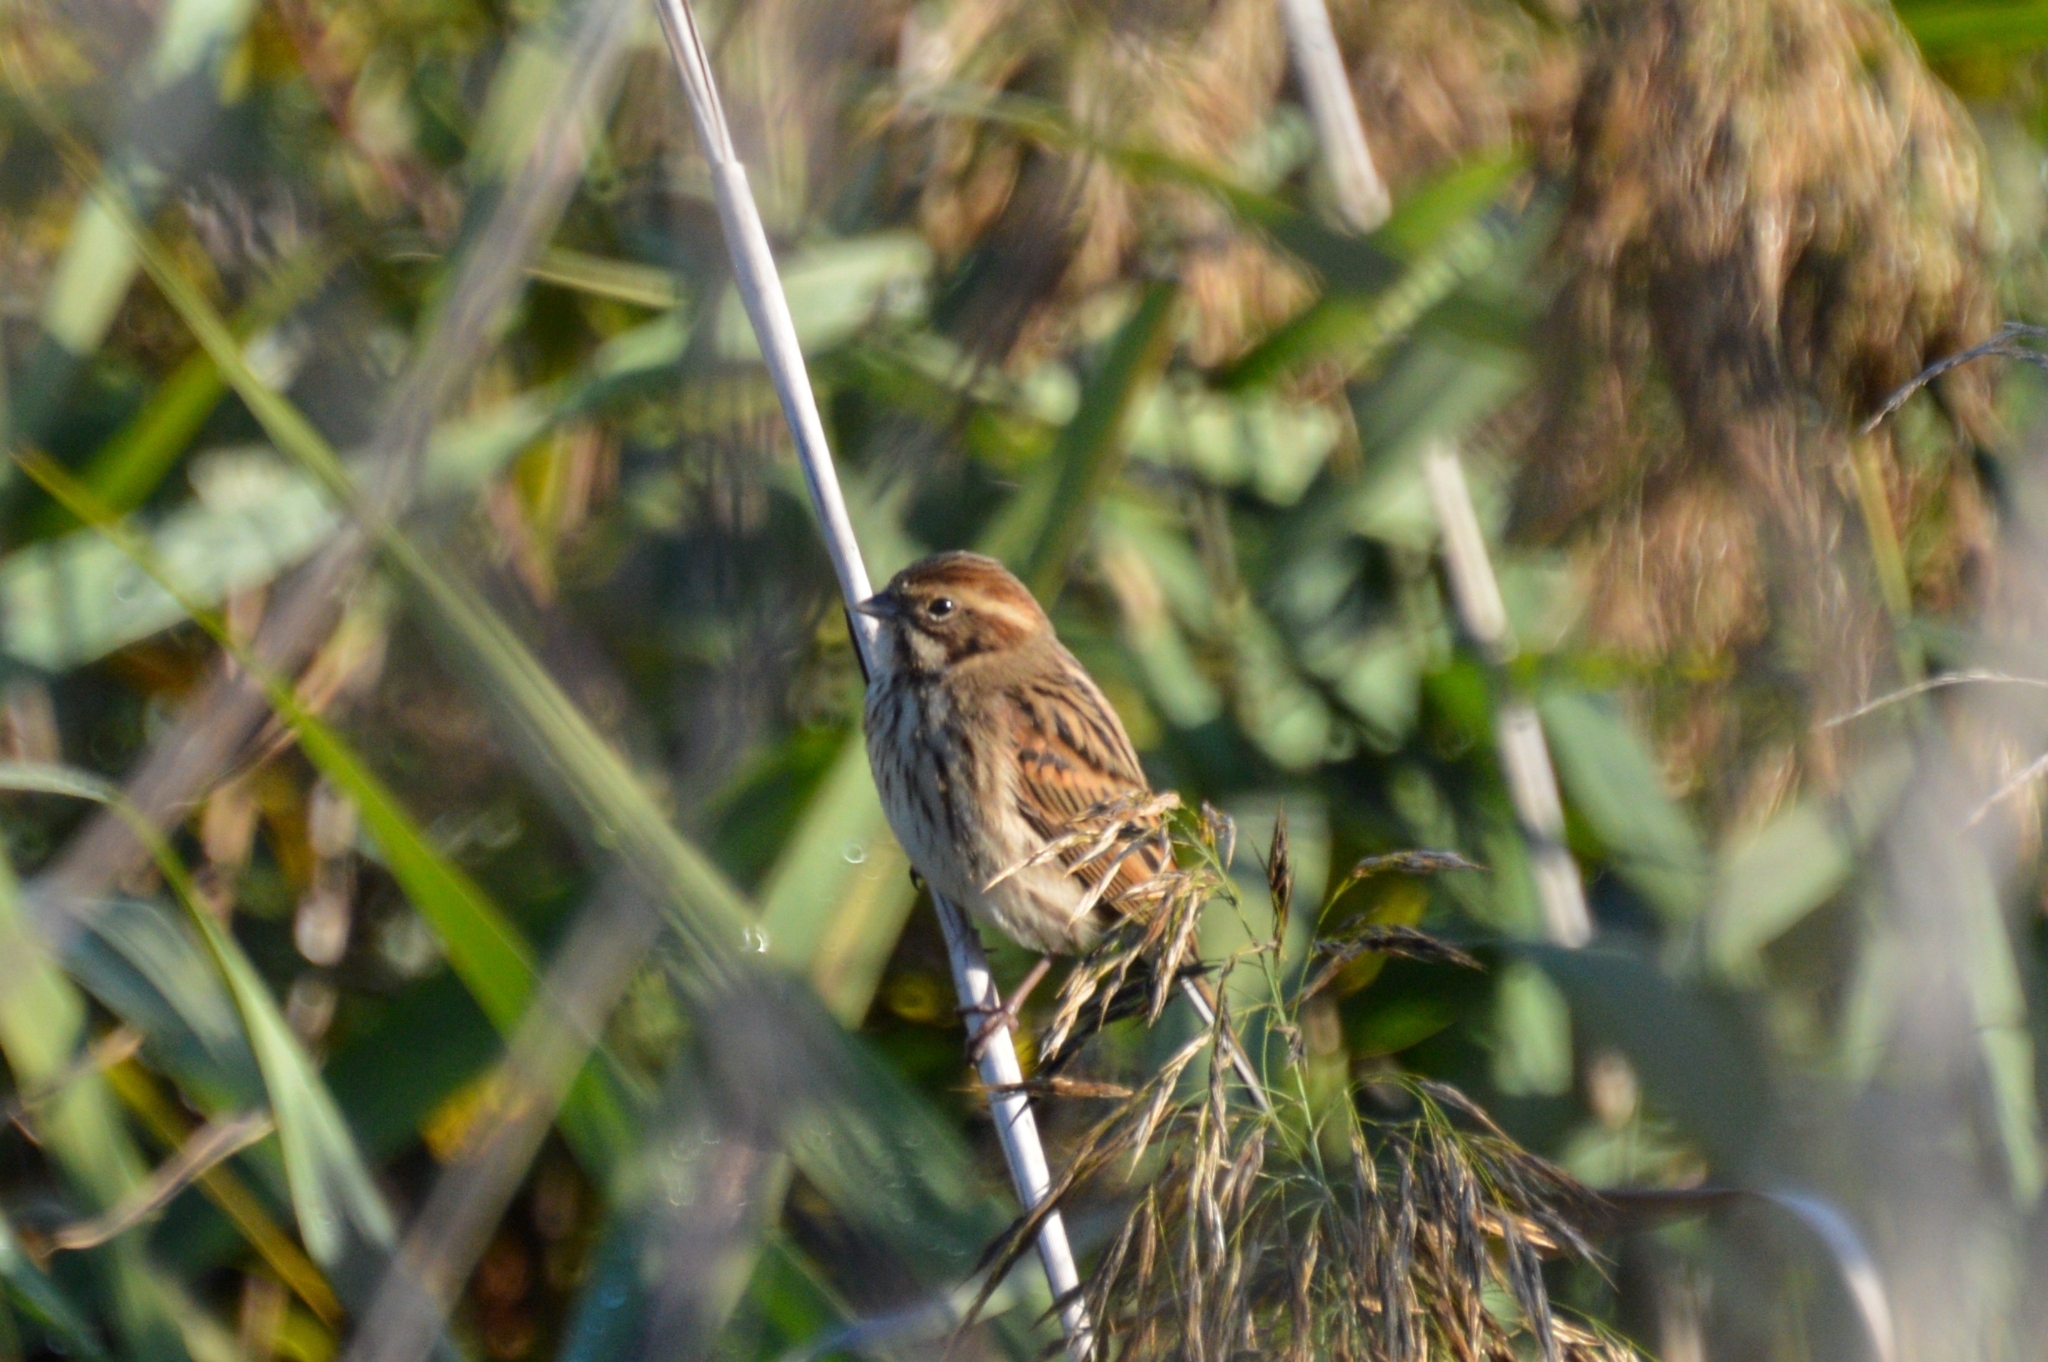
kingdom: Animalia
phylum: Chordata
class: Aves
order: Passeriformes
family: Emberizidae
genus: Emberiza
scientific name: Emberiza schoeniclus
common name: Reed bunting
